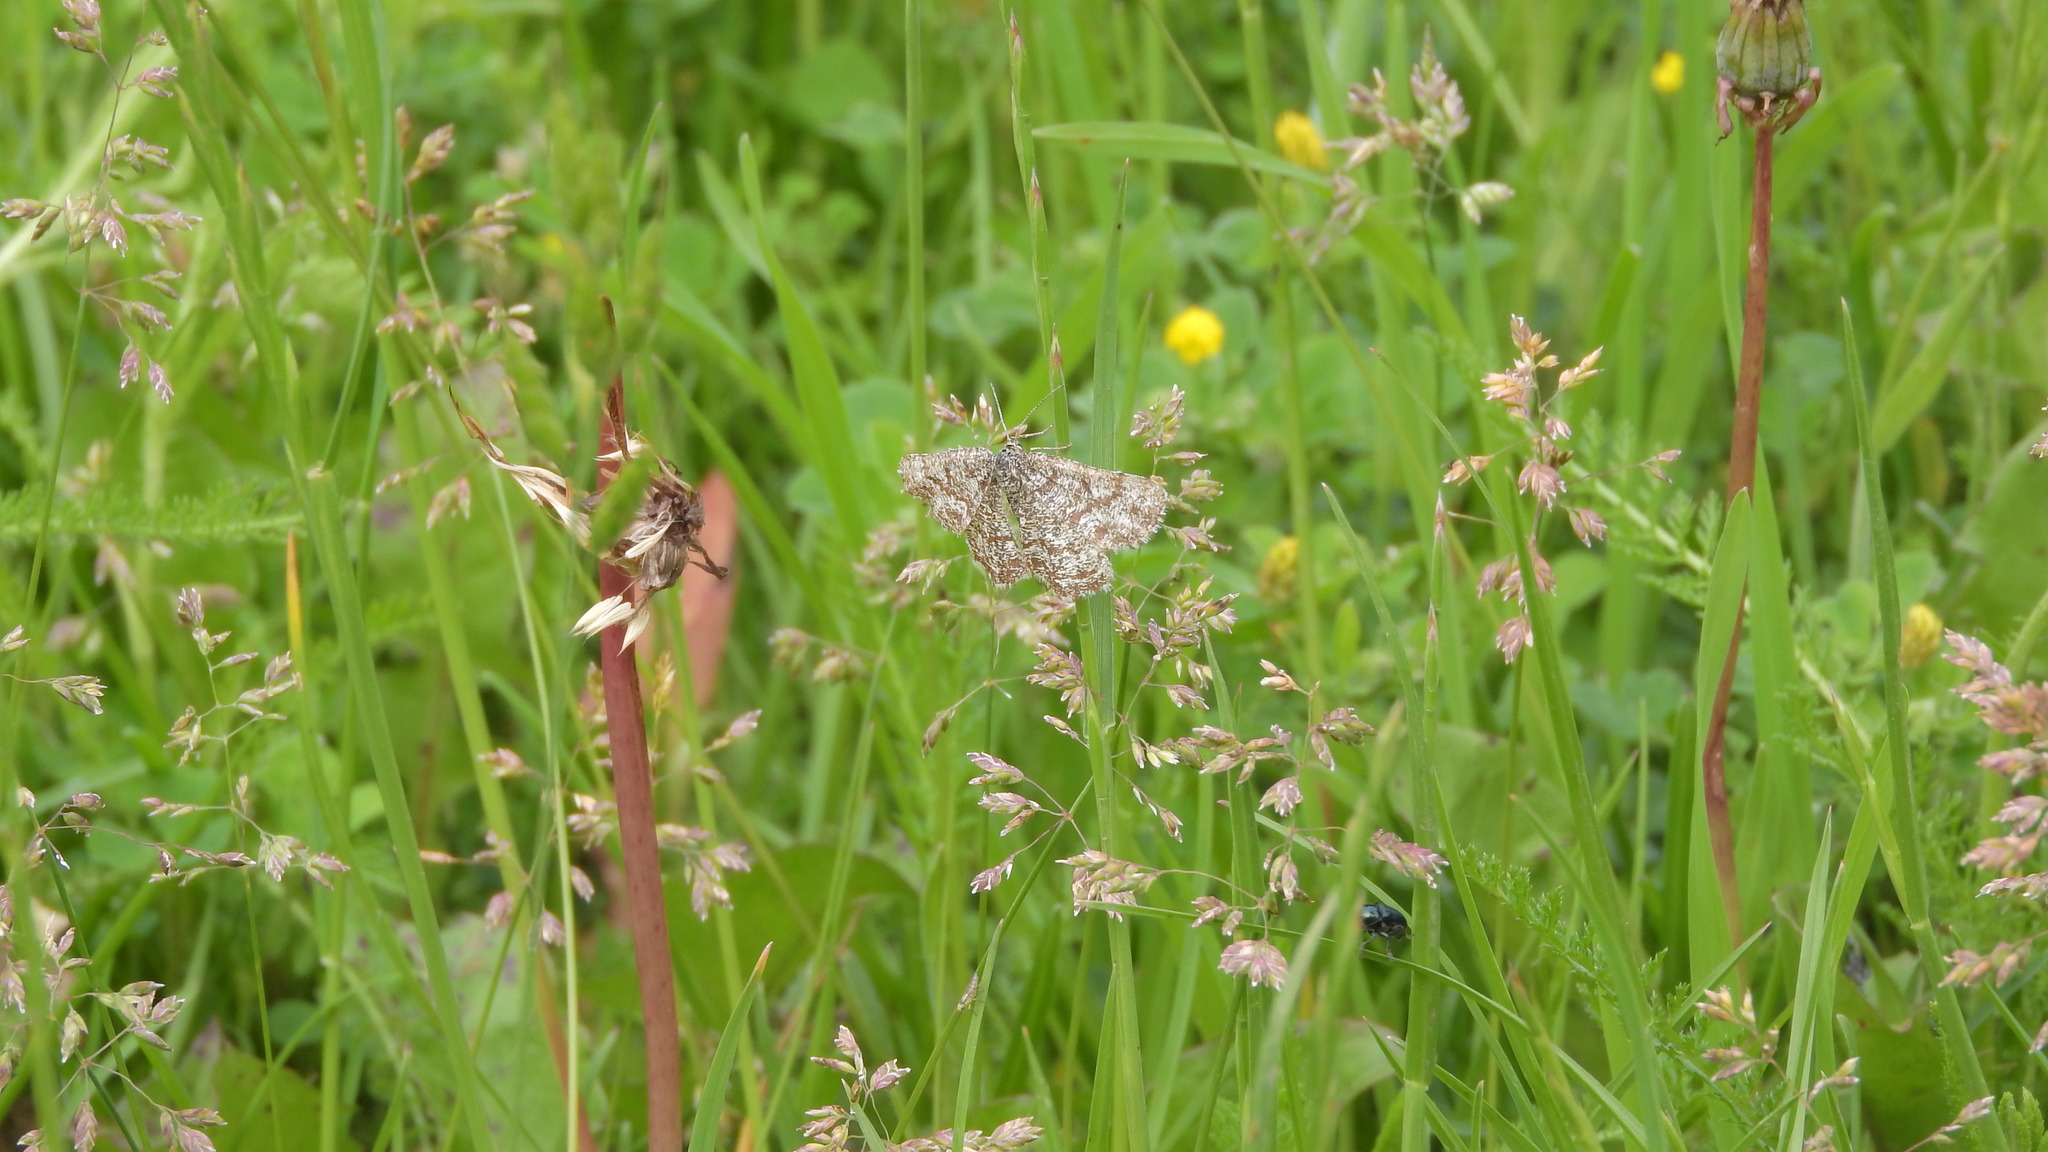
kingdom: Animalia
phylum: Arthropoda
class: Insecta
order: Lepidoptera
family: Geometridae
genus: Ematurga
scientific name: Ematurga atomaria
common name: Common heath
